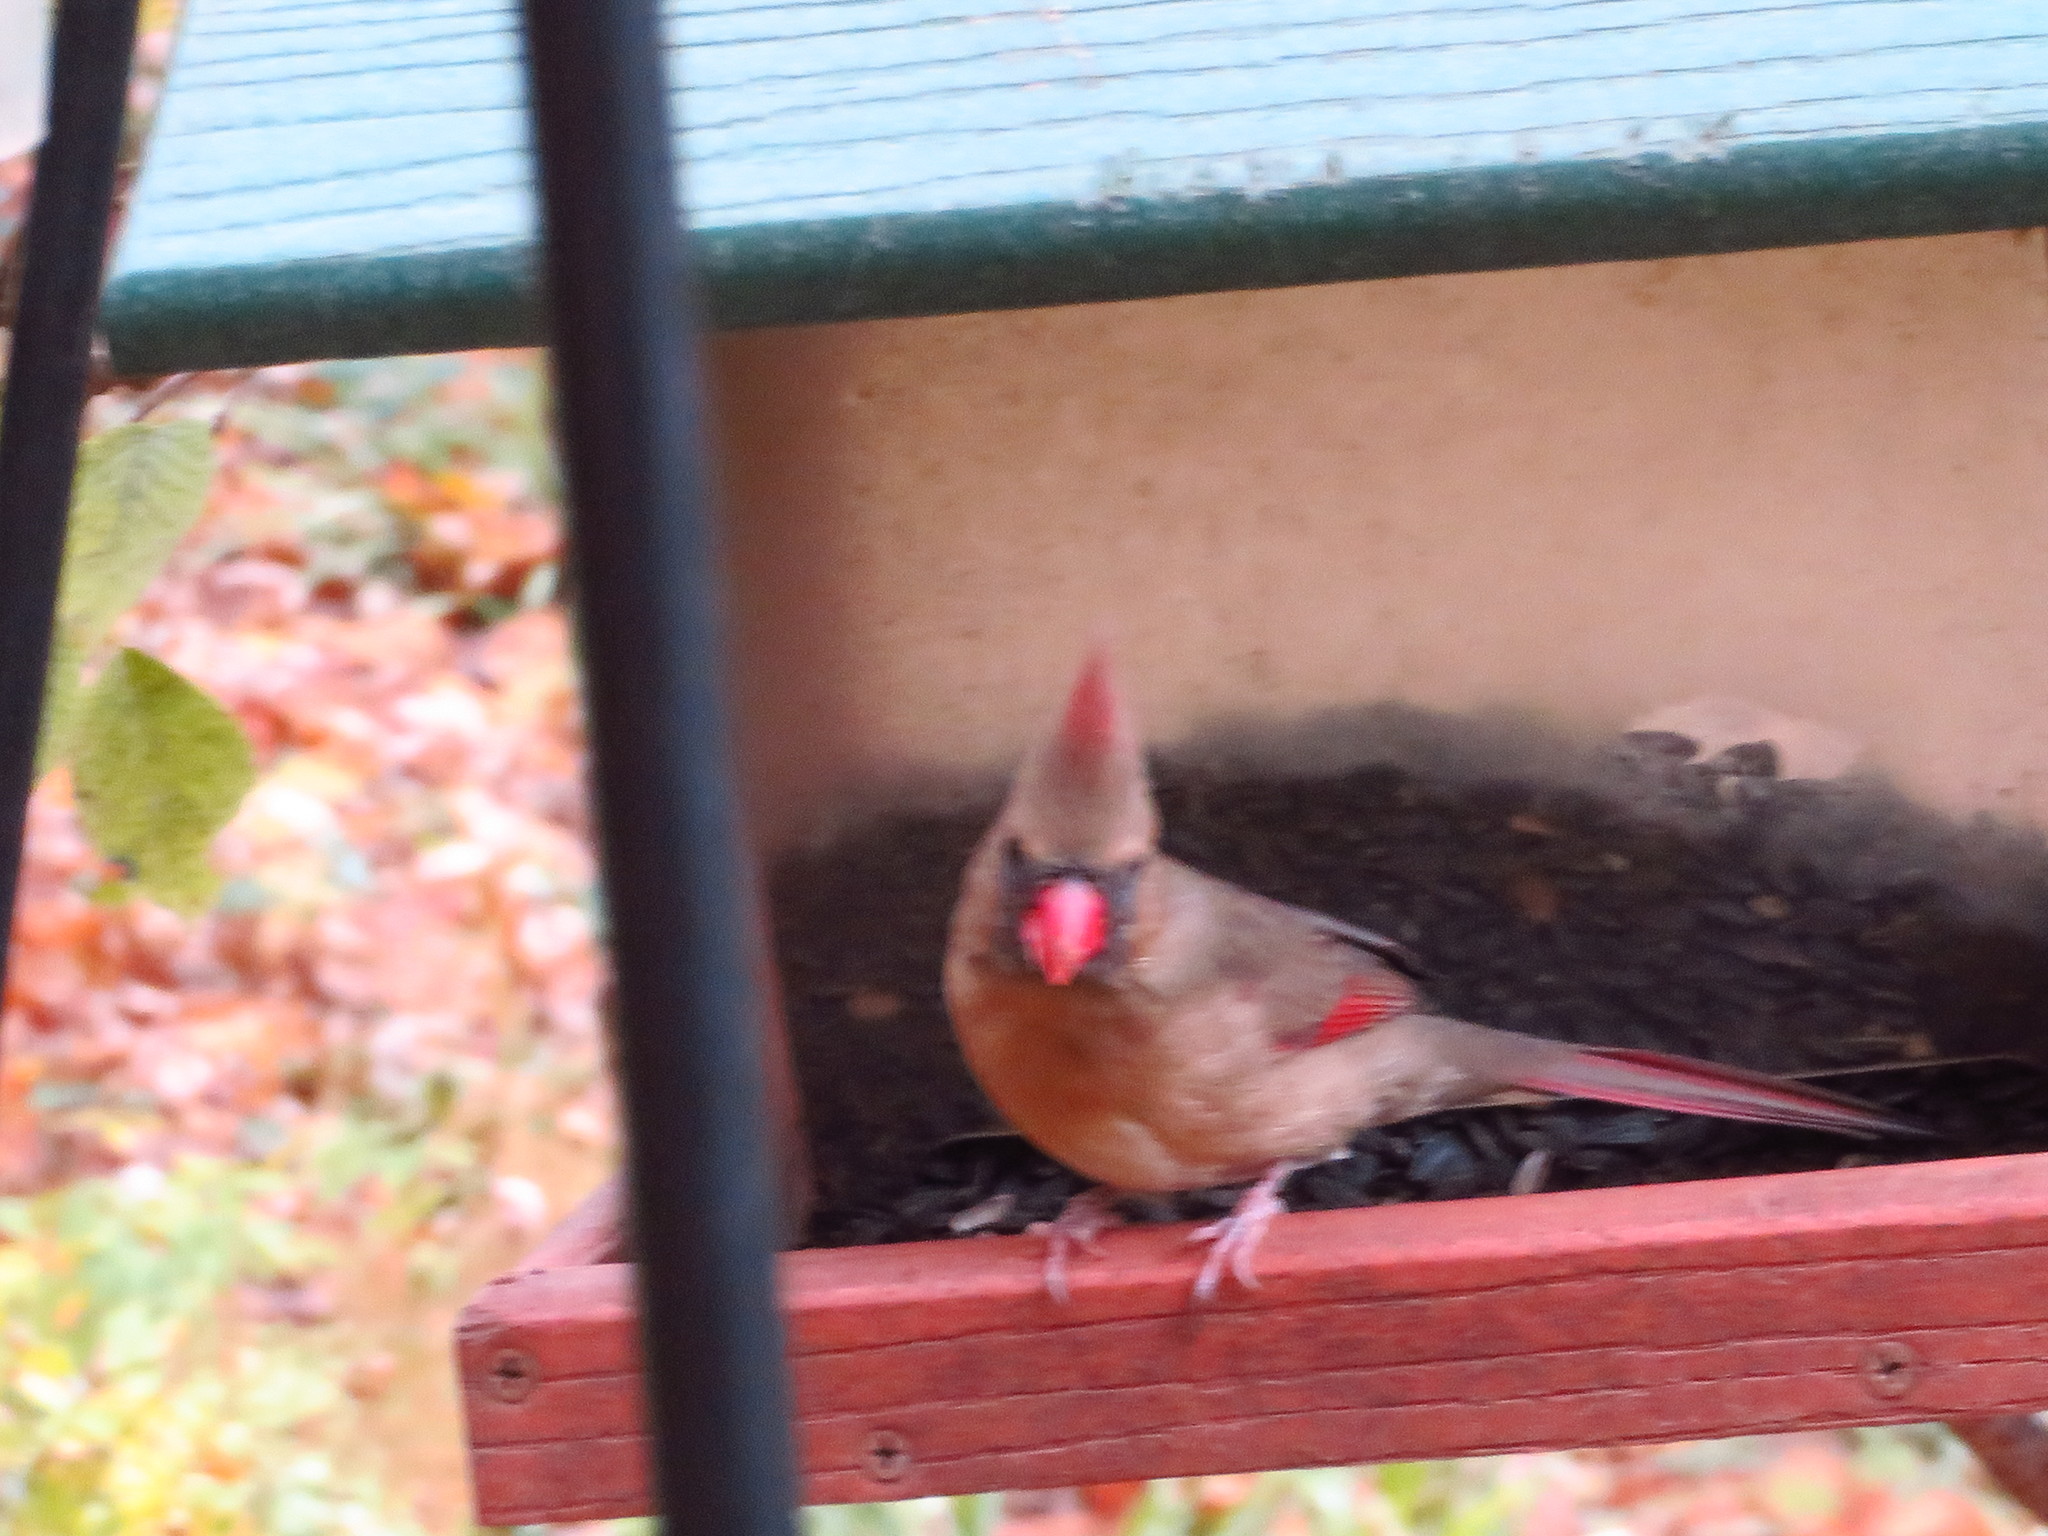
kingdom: Animalia
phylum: Chordata
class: Aves
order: Passeriformes
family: Cardinalidae
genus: Cardinalis
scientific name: Cardinalis cardinalis
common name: Northern cardinal
